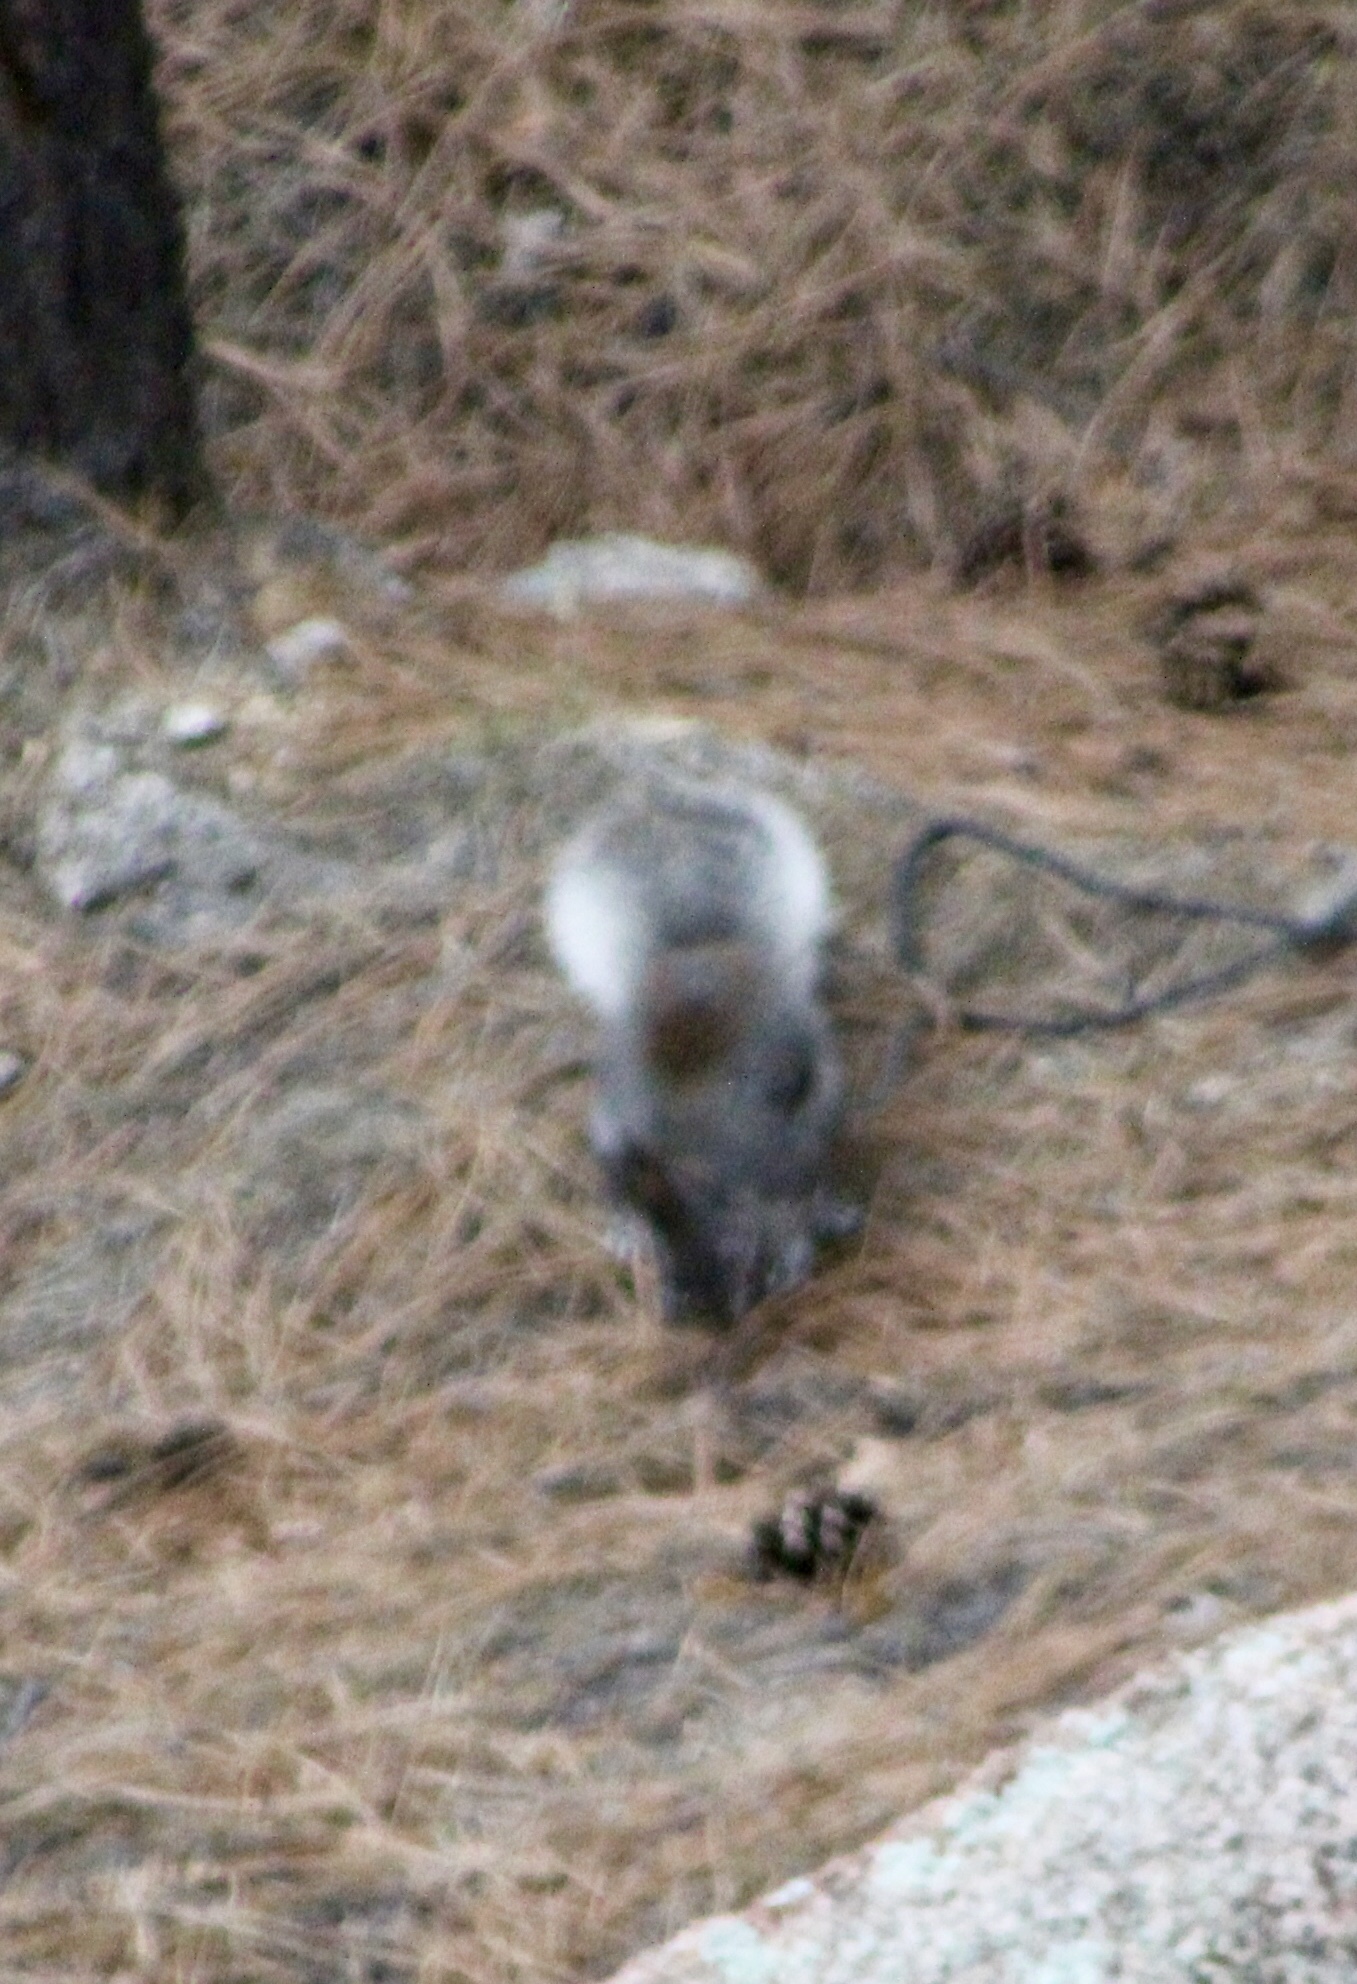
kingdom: Animalia
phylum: Chordata
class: Mammalia
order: Rodentia
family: Sciuridae
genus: Sciurus
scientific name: Sciurus aberti
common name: Abert's squirrel
